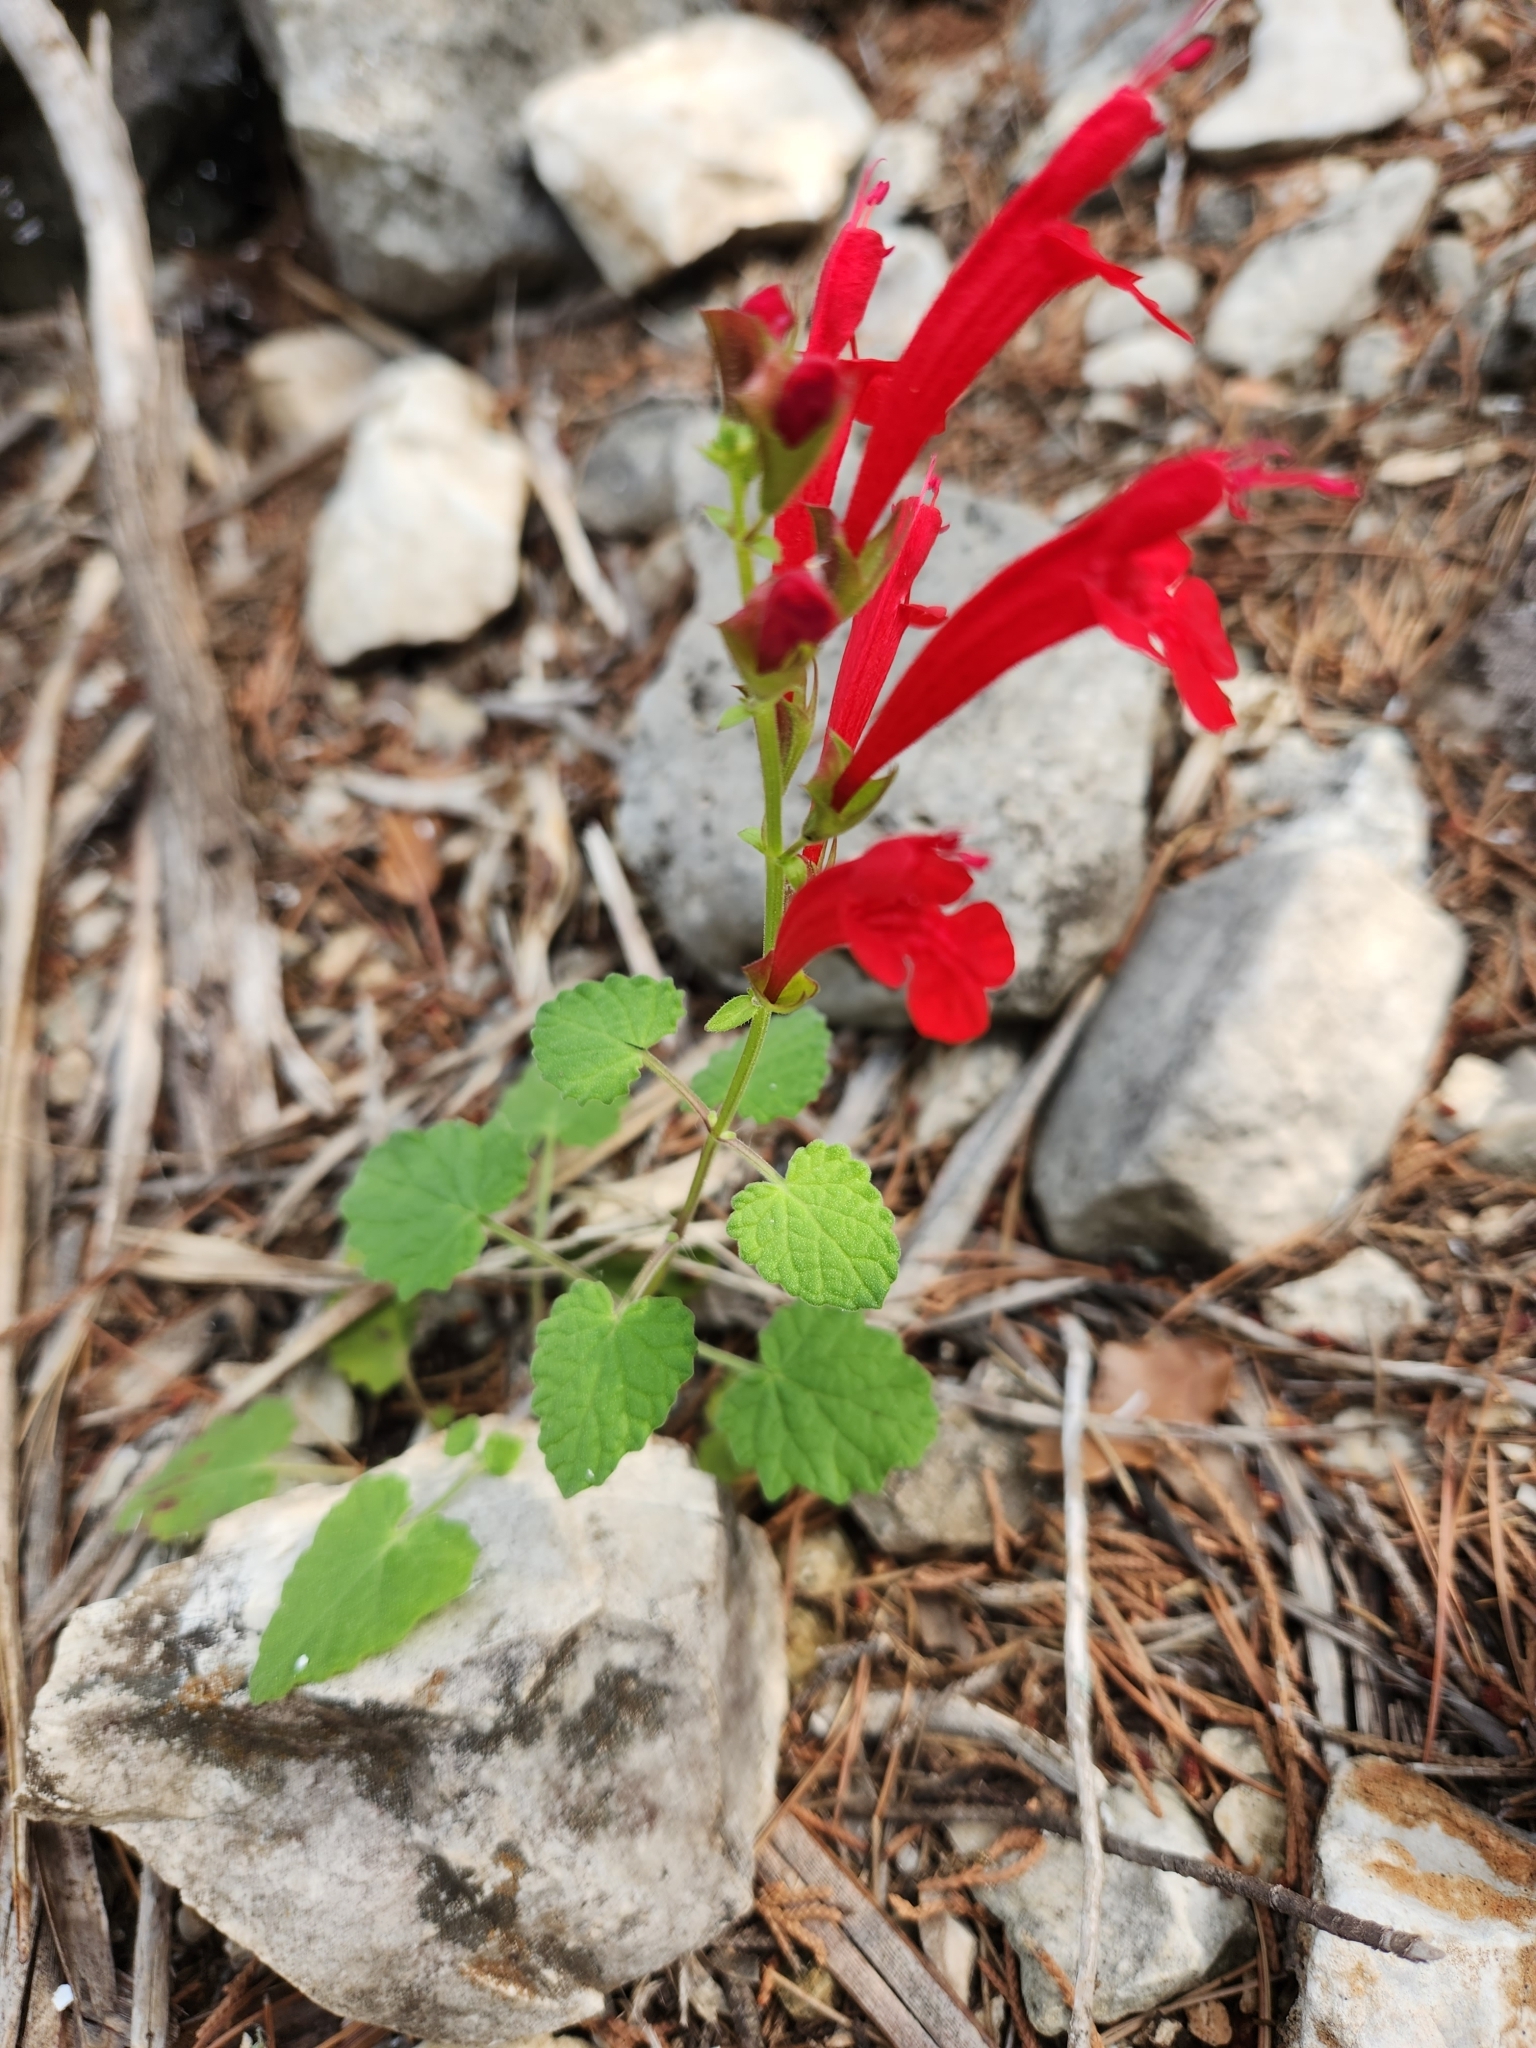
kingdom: Plantae
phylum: Tracheophyta
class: Magnoliopsida
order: Lamiales
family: Lamiaceae
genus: Salvia
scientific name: Salvia roemeriana
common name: Cedar sage
